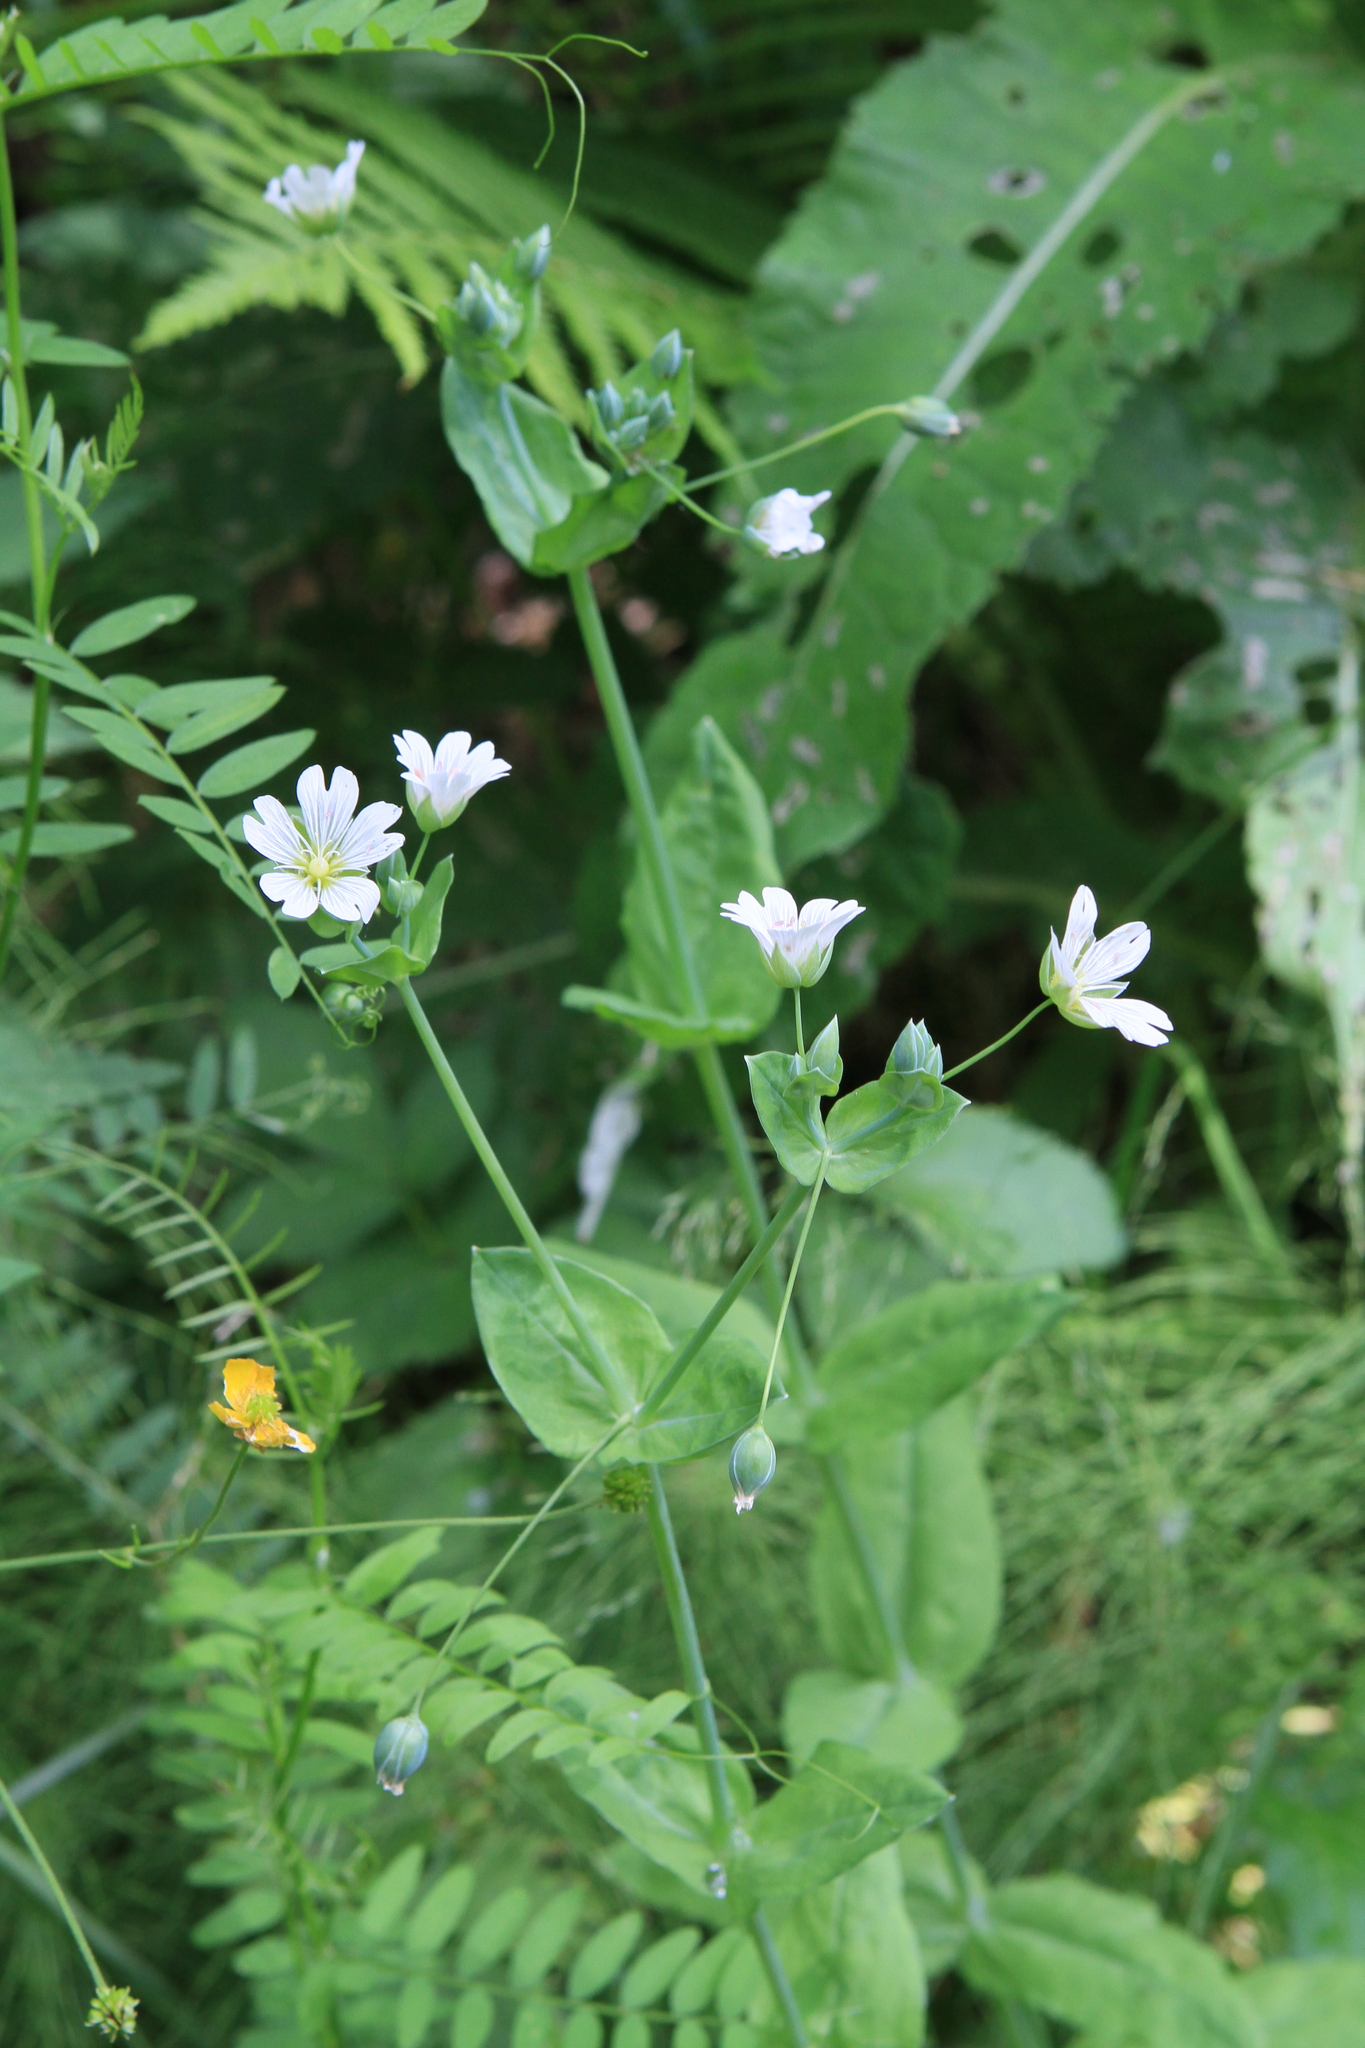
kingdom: Plantae
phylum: Tracheophyta
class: Magnoliopsida
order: Caryophyllales
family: Caryophyllaceae
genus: Cerastium
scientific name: Cerastium davuricum
